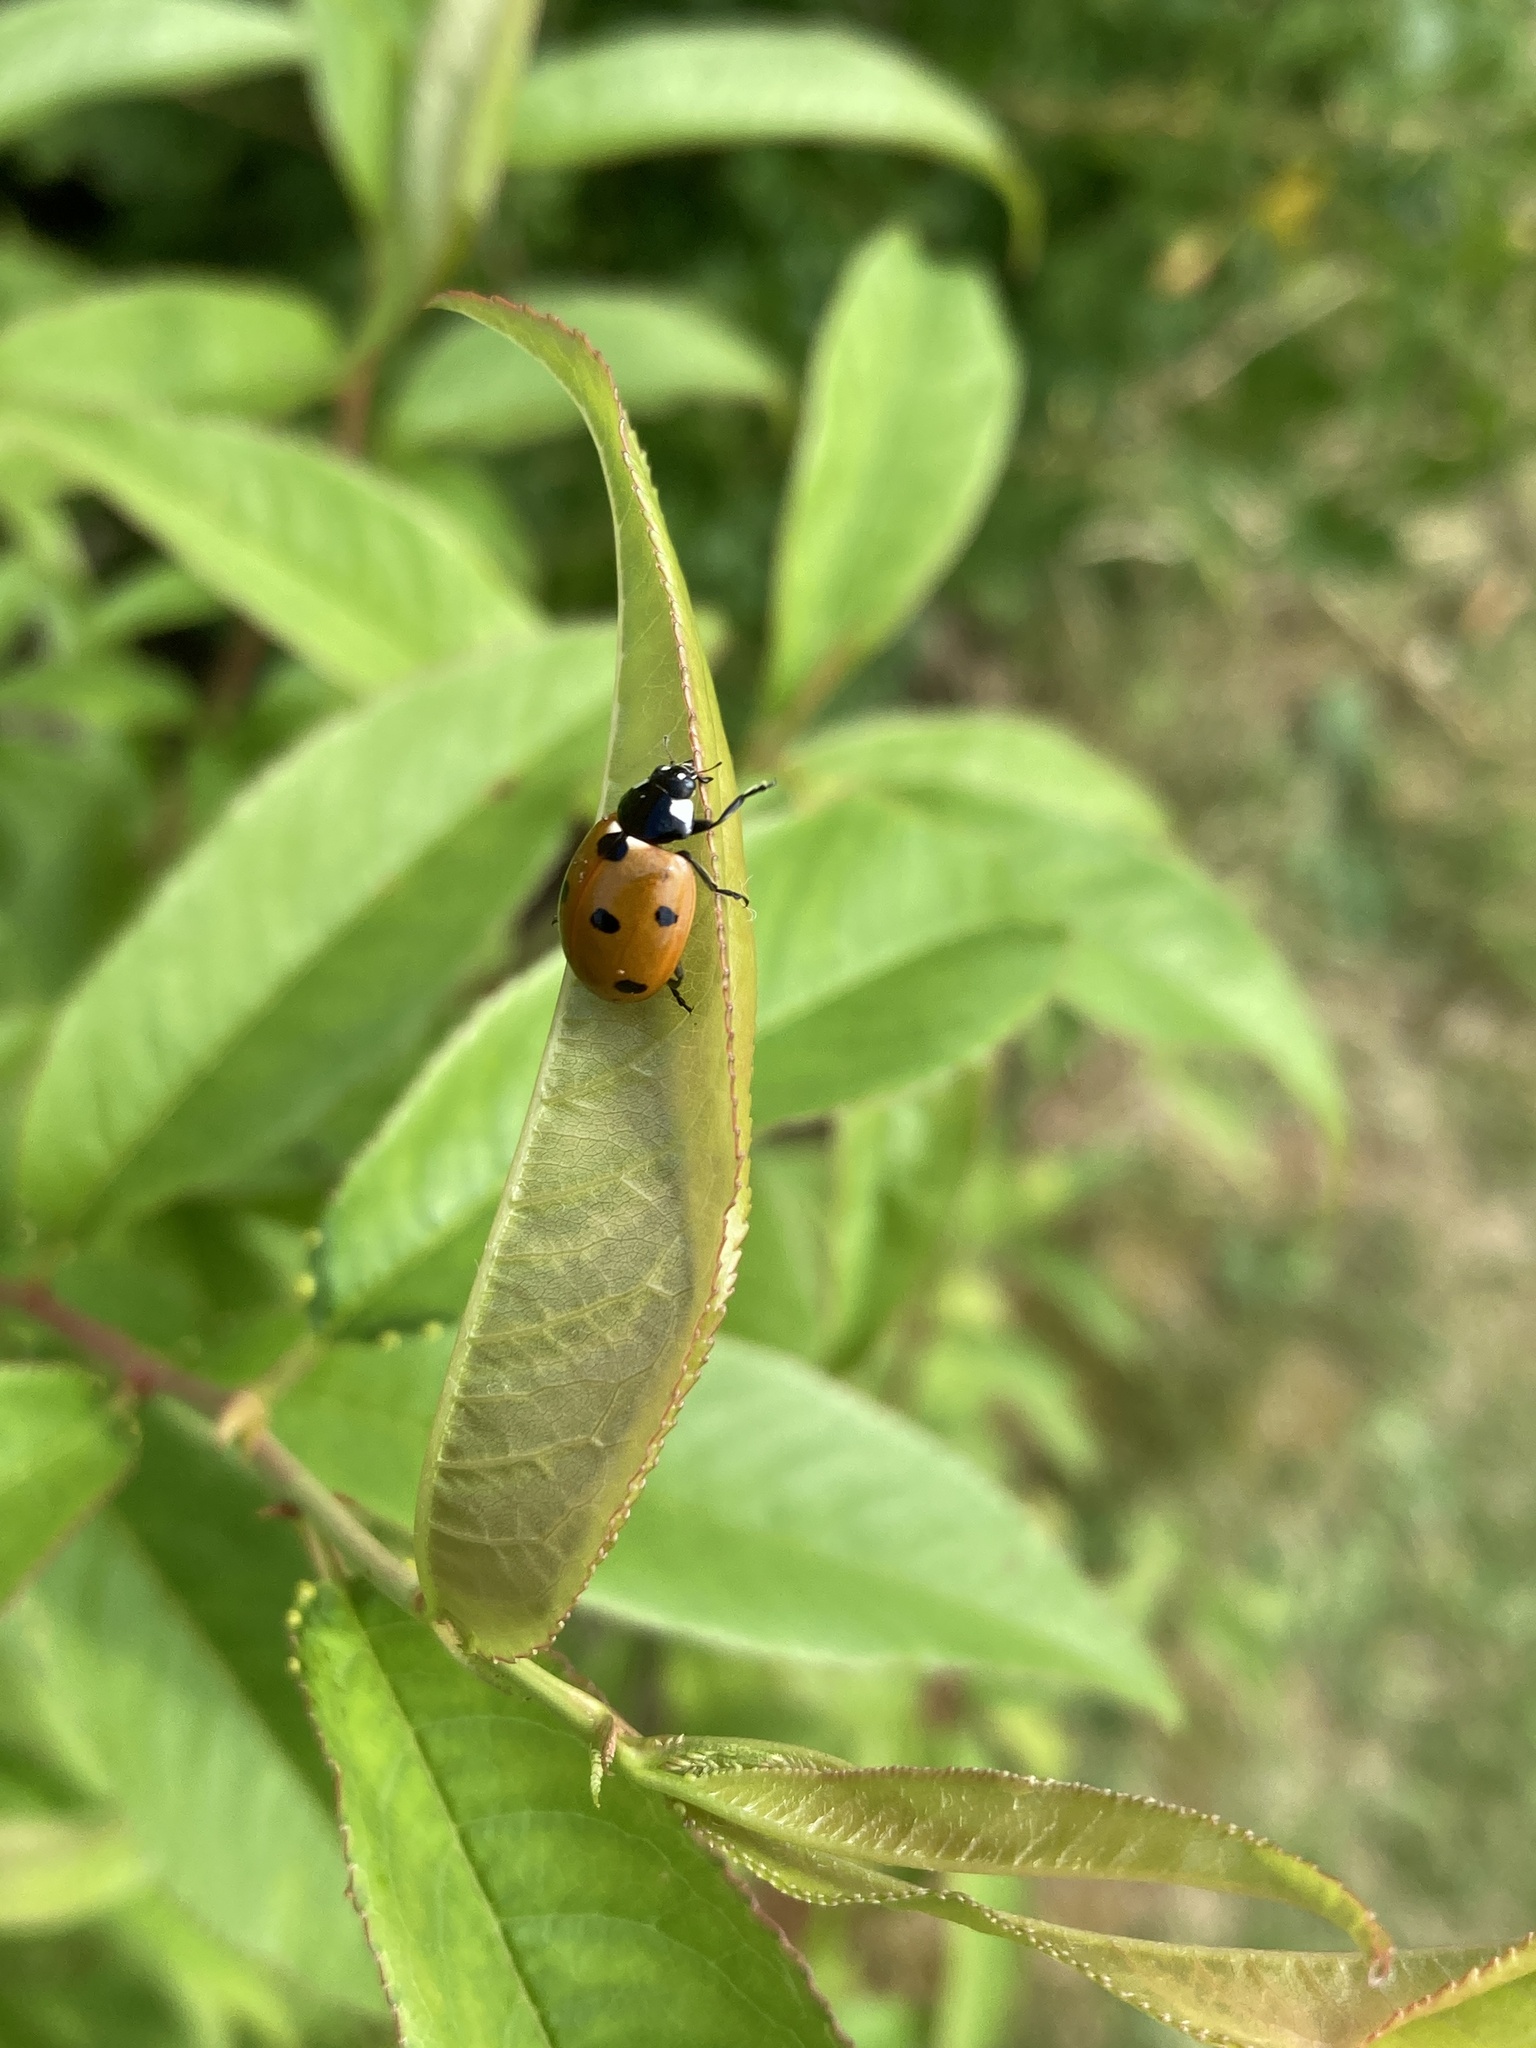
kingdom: Animalia
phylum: Arthropoda
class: Insecta
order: Coleoptera
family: Coccinellidae
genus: Coccinella
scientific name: Coccinella septempunctata
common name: Sevenspotted lady beetle
